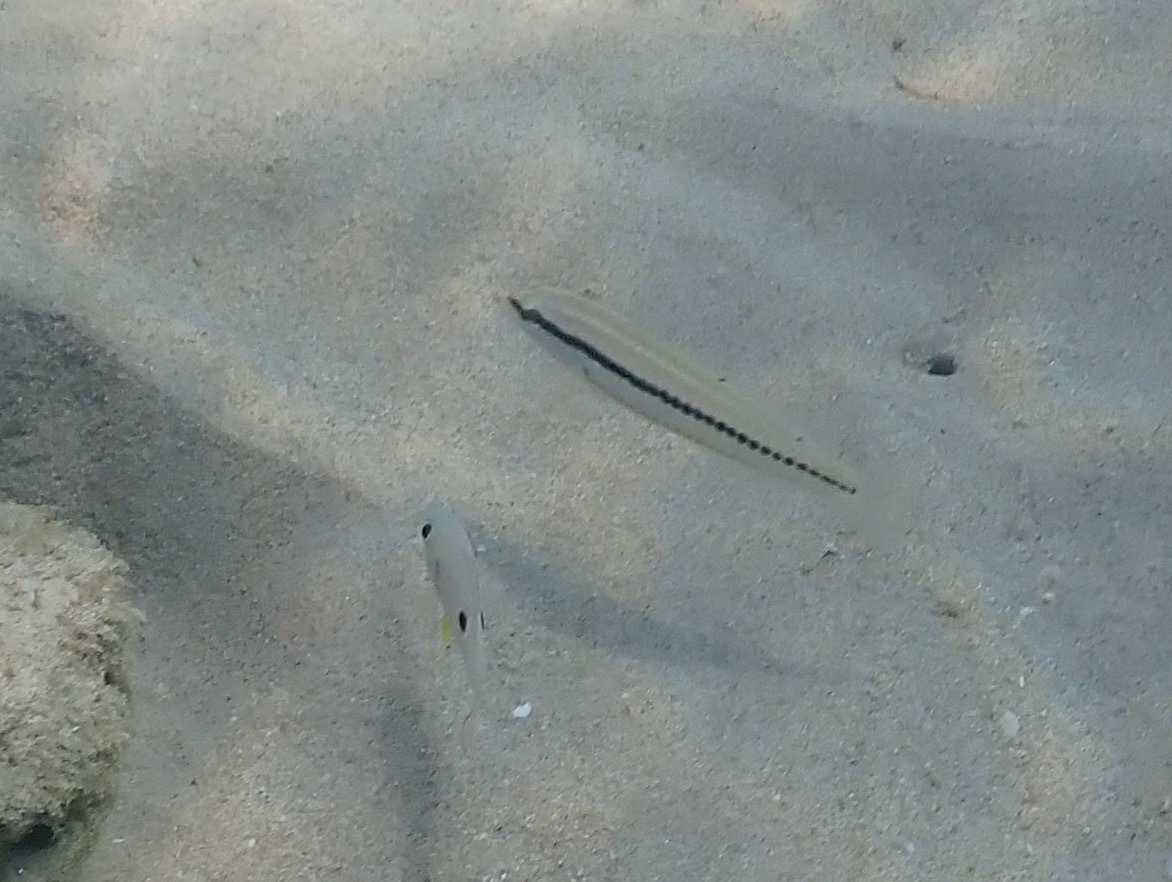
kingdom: Animalia
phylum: Chordata
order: Perciformes
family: Labridae
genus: Halichoeres
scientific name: Halichoeres bivittatus
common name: Slippery dick
